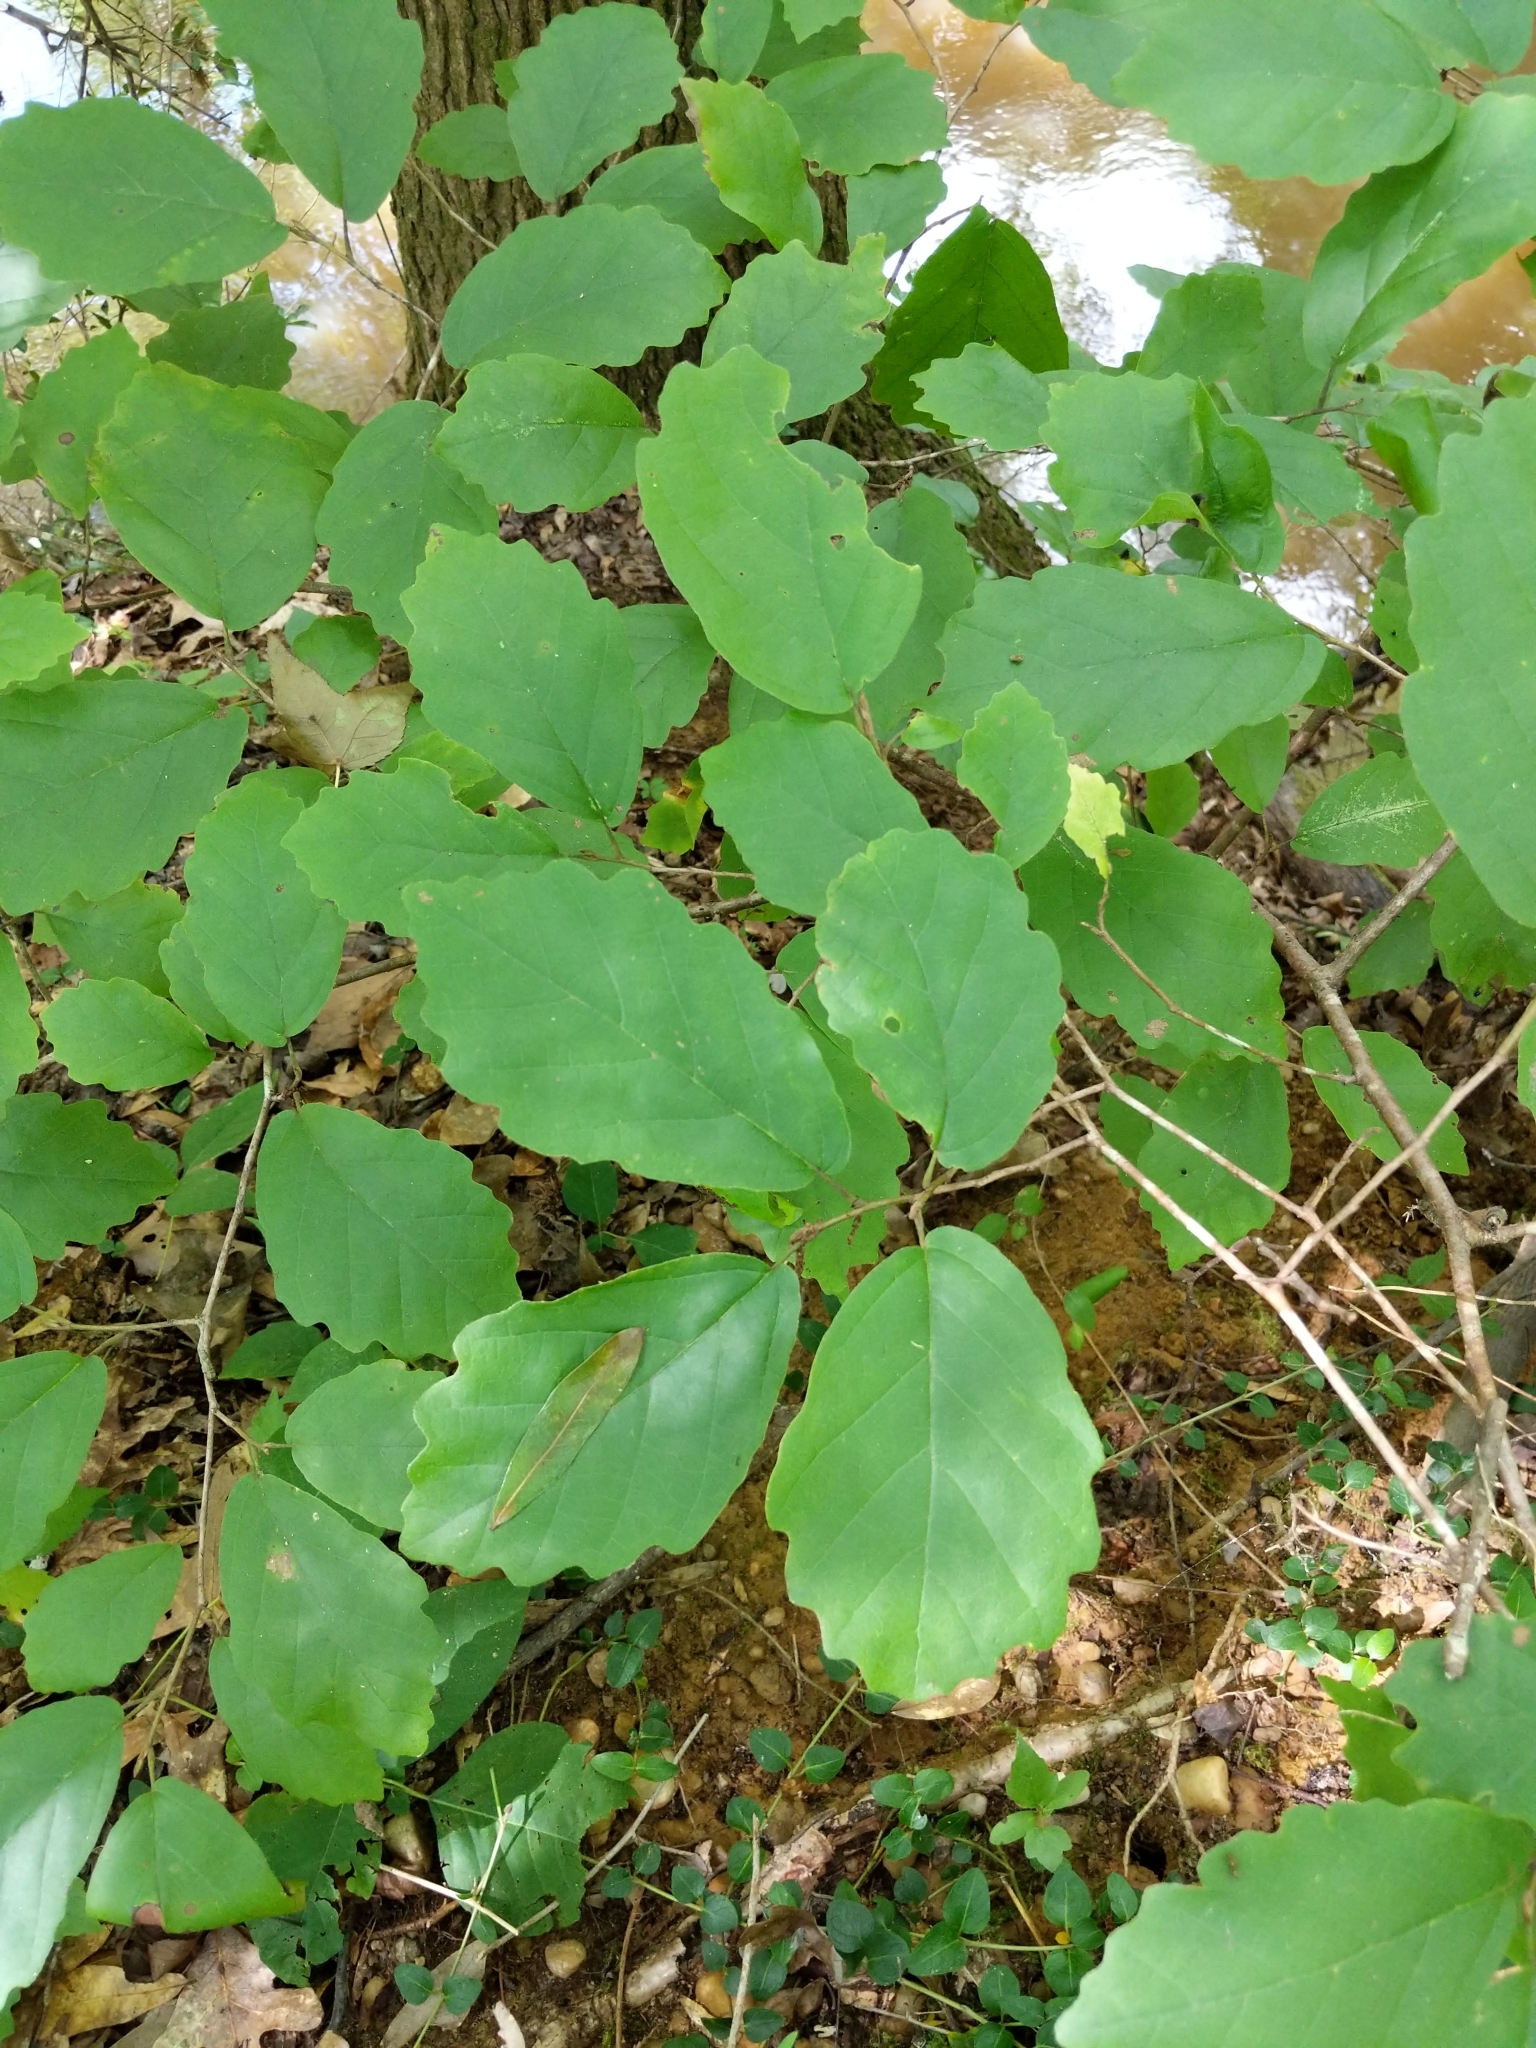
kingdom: Plantae
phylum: Tracheophyta
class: Magnoliopsida
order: Saxifragales
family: Hamamelidaceae
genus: Hamamelis
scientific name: Hamamelis virginiana
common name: Witch-hazel
